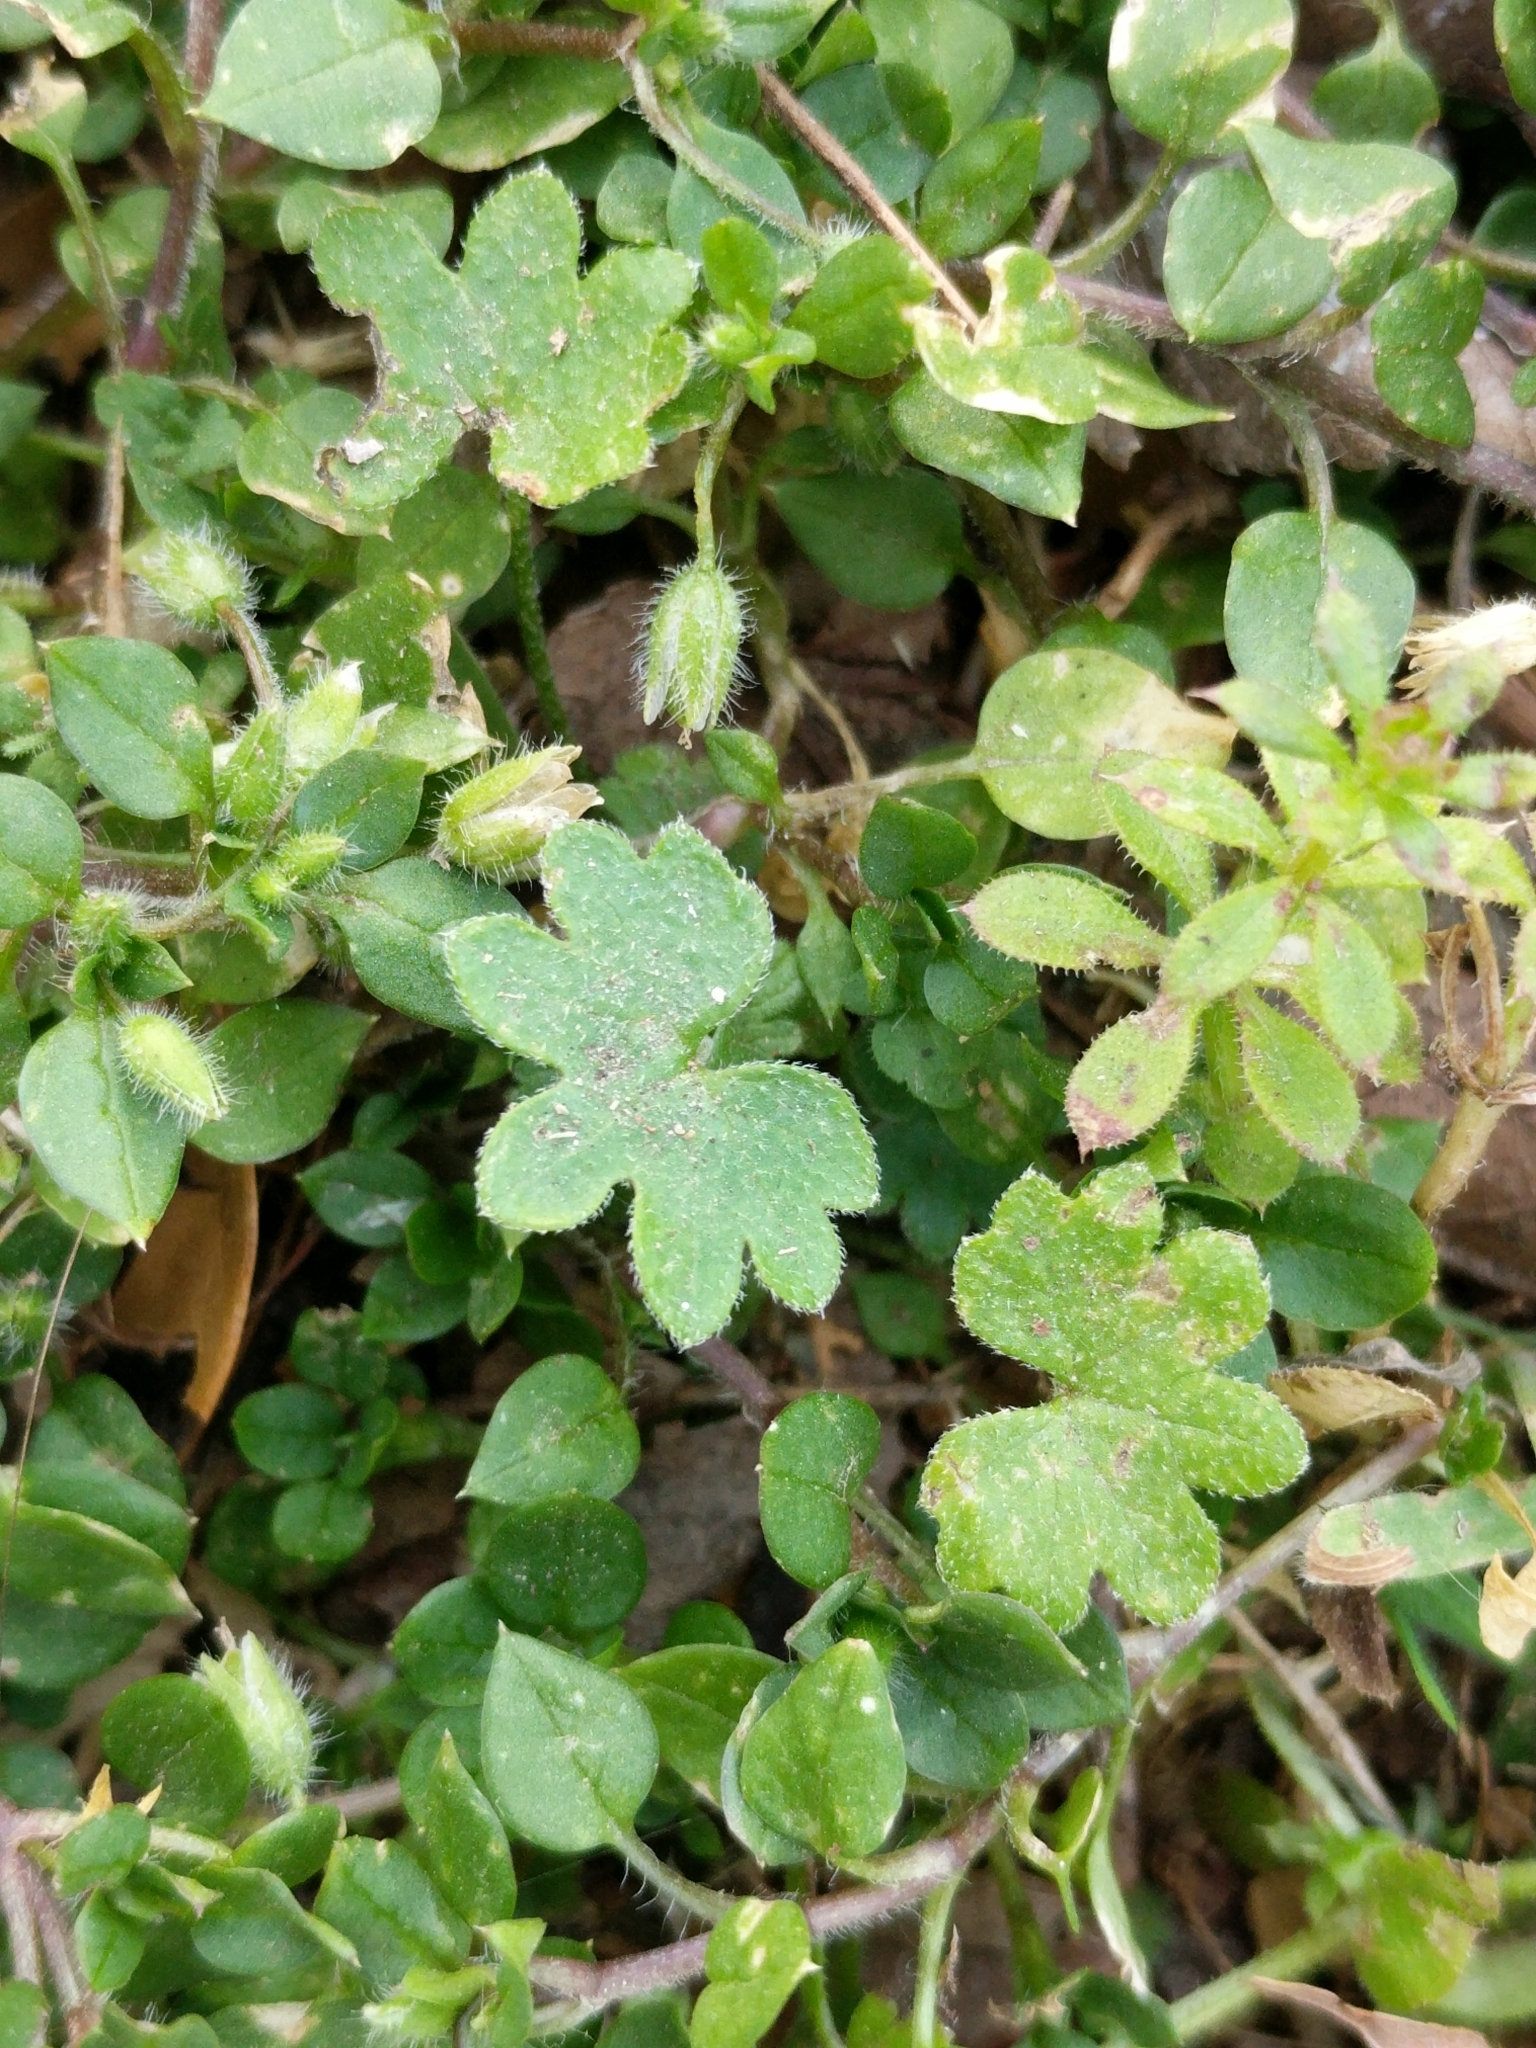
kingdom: Plantae
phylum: Tracheophyta
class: Magnoliopsida
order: Apiales
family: Apiaceae
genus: Bowlesia
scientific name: Bowlesia incana
